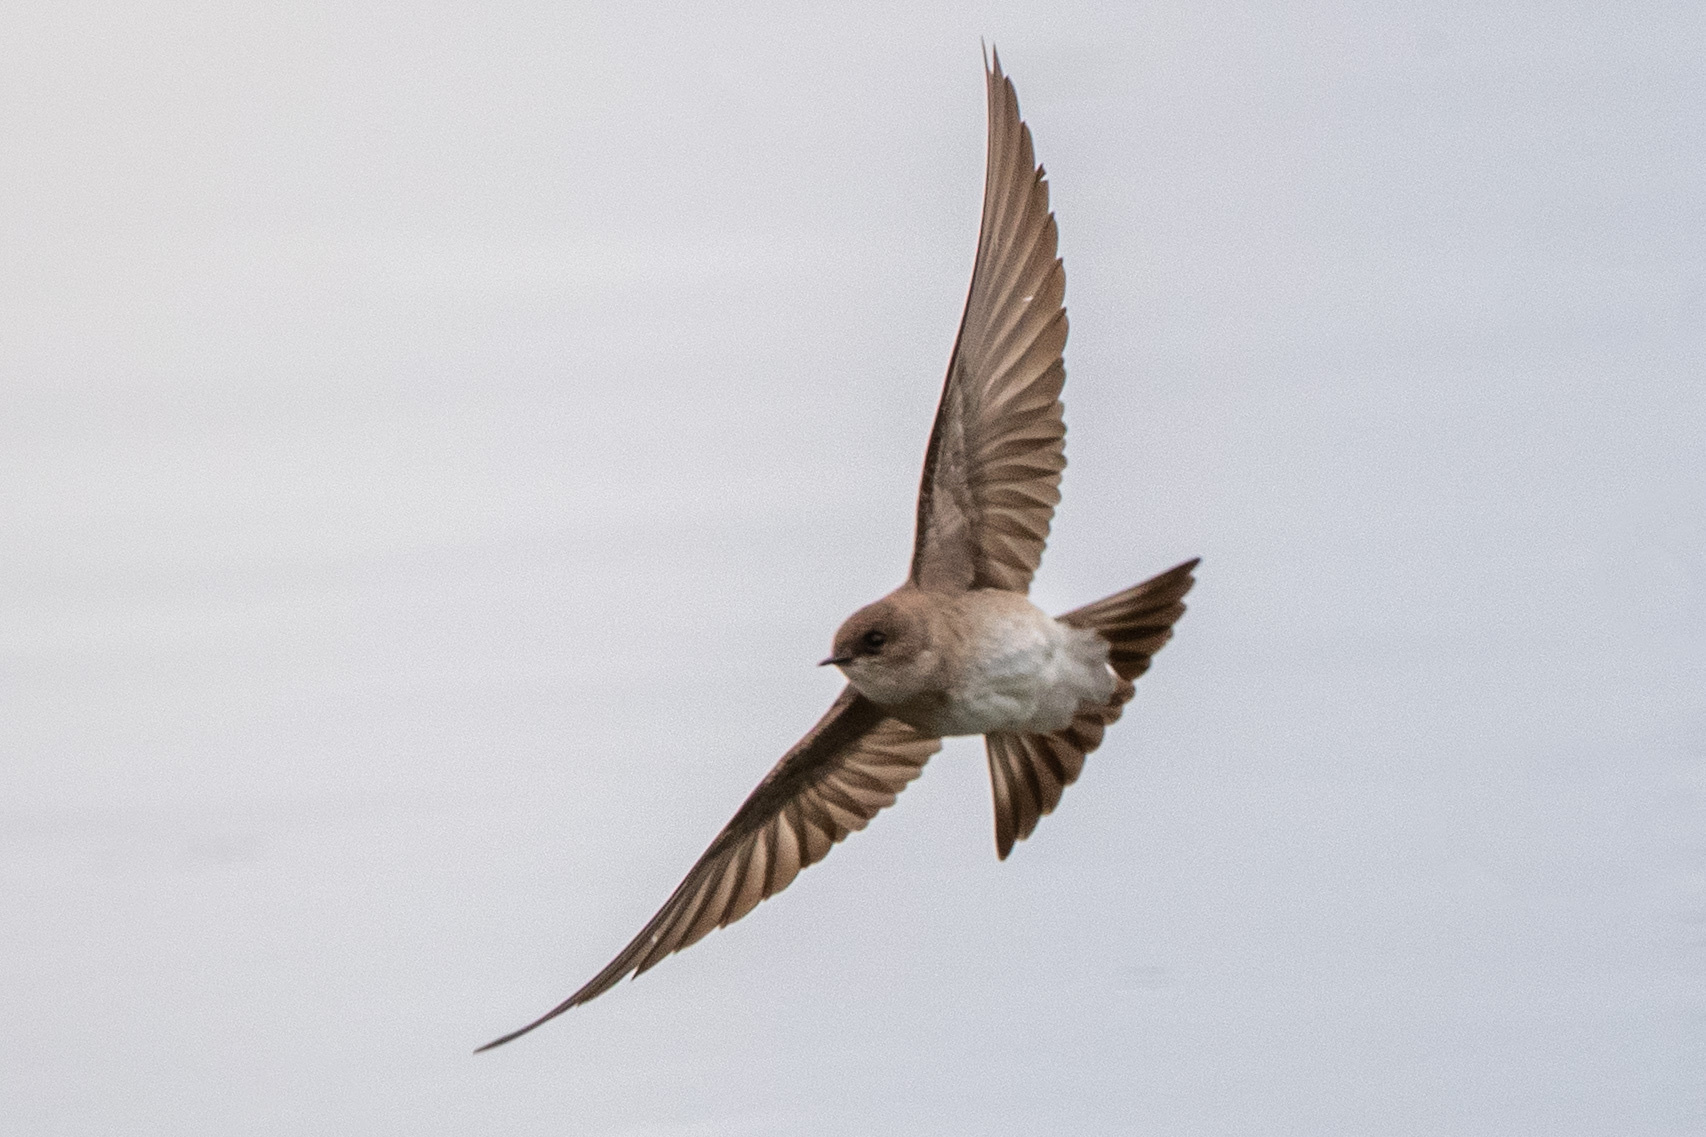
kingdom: Animalia
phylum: Chordata
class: Aves
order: Passeriformes
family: Hirundinidae
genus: Stelgidopteryx
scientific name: Stelgidopteryx serripennis
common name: Northern rough-winged swallow
